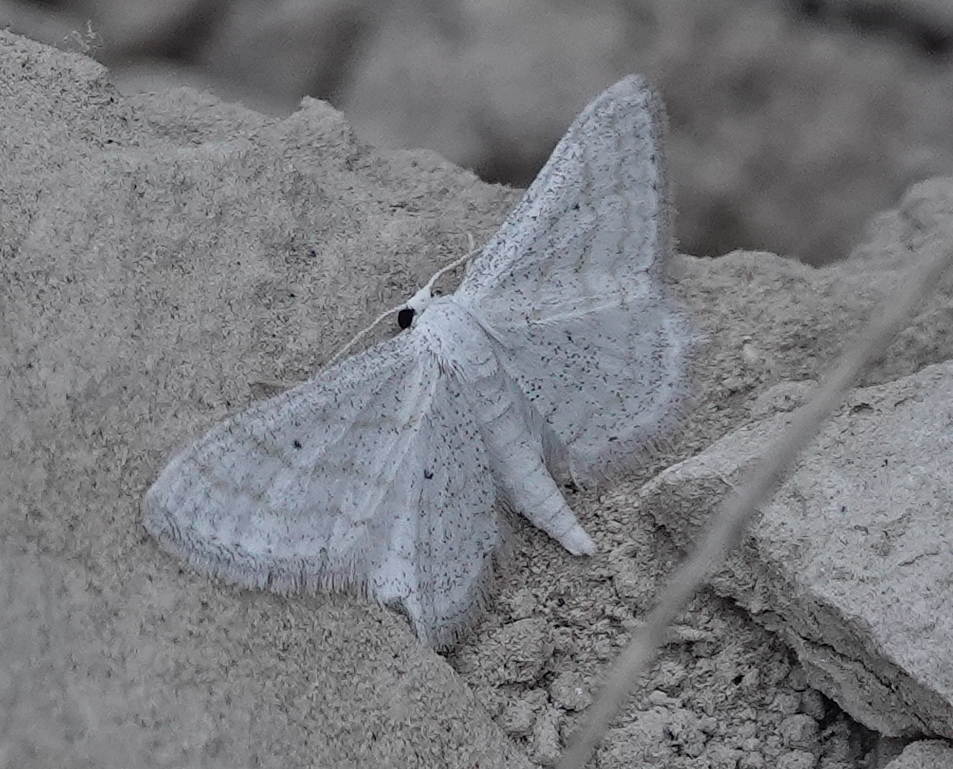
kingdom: Animalia
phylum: Arthropoda
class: Insecta
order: Lepidoptera
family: Geometridae
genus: Lobocleta
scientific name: Lobocleta peralbata
